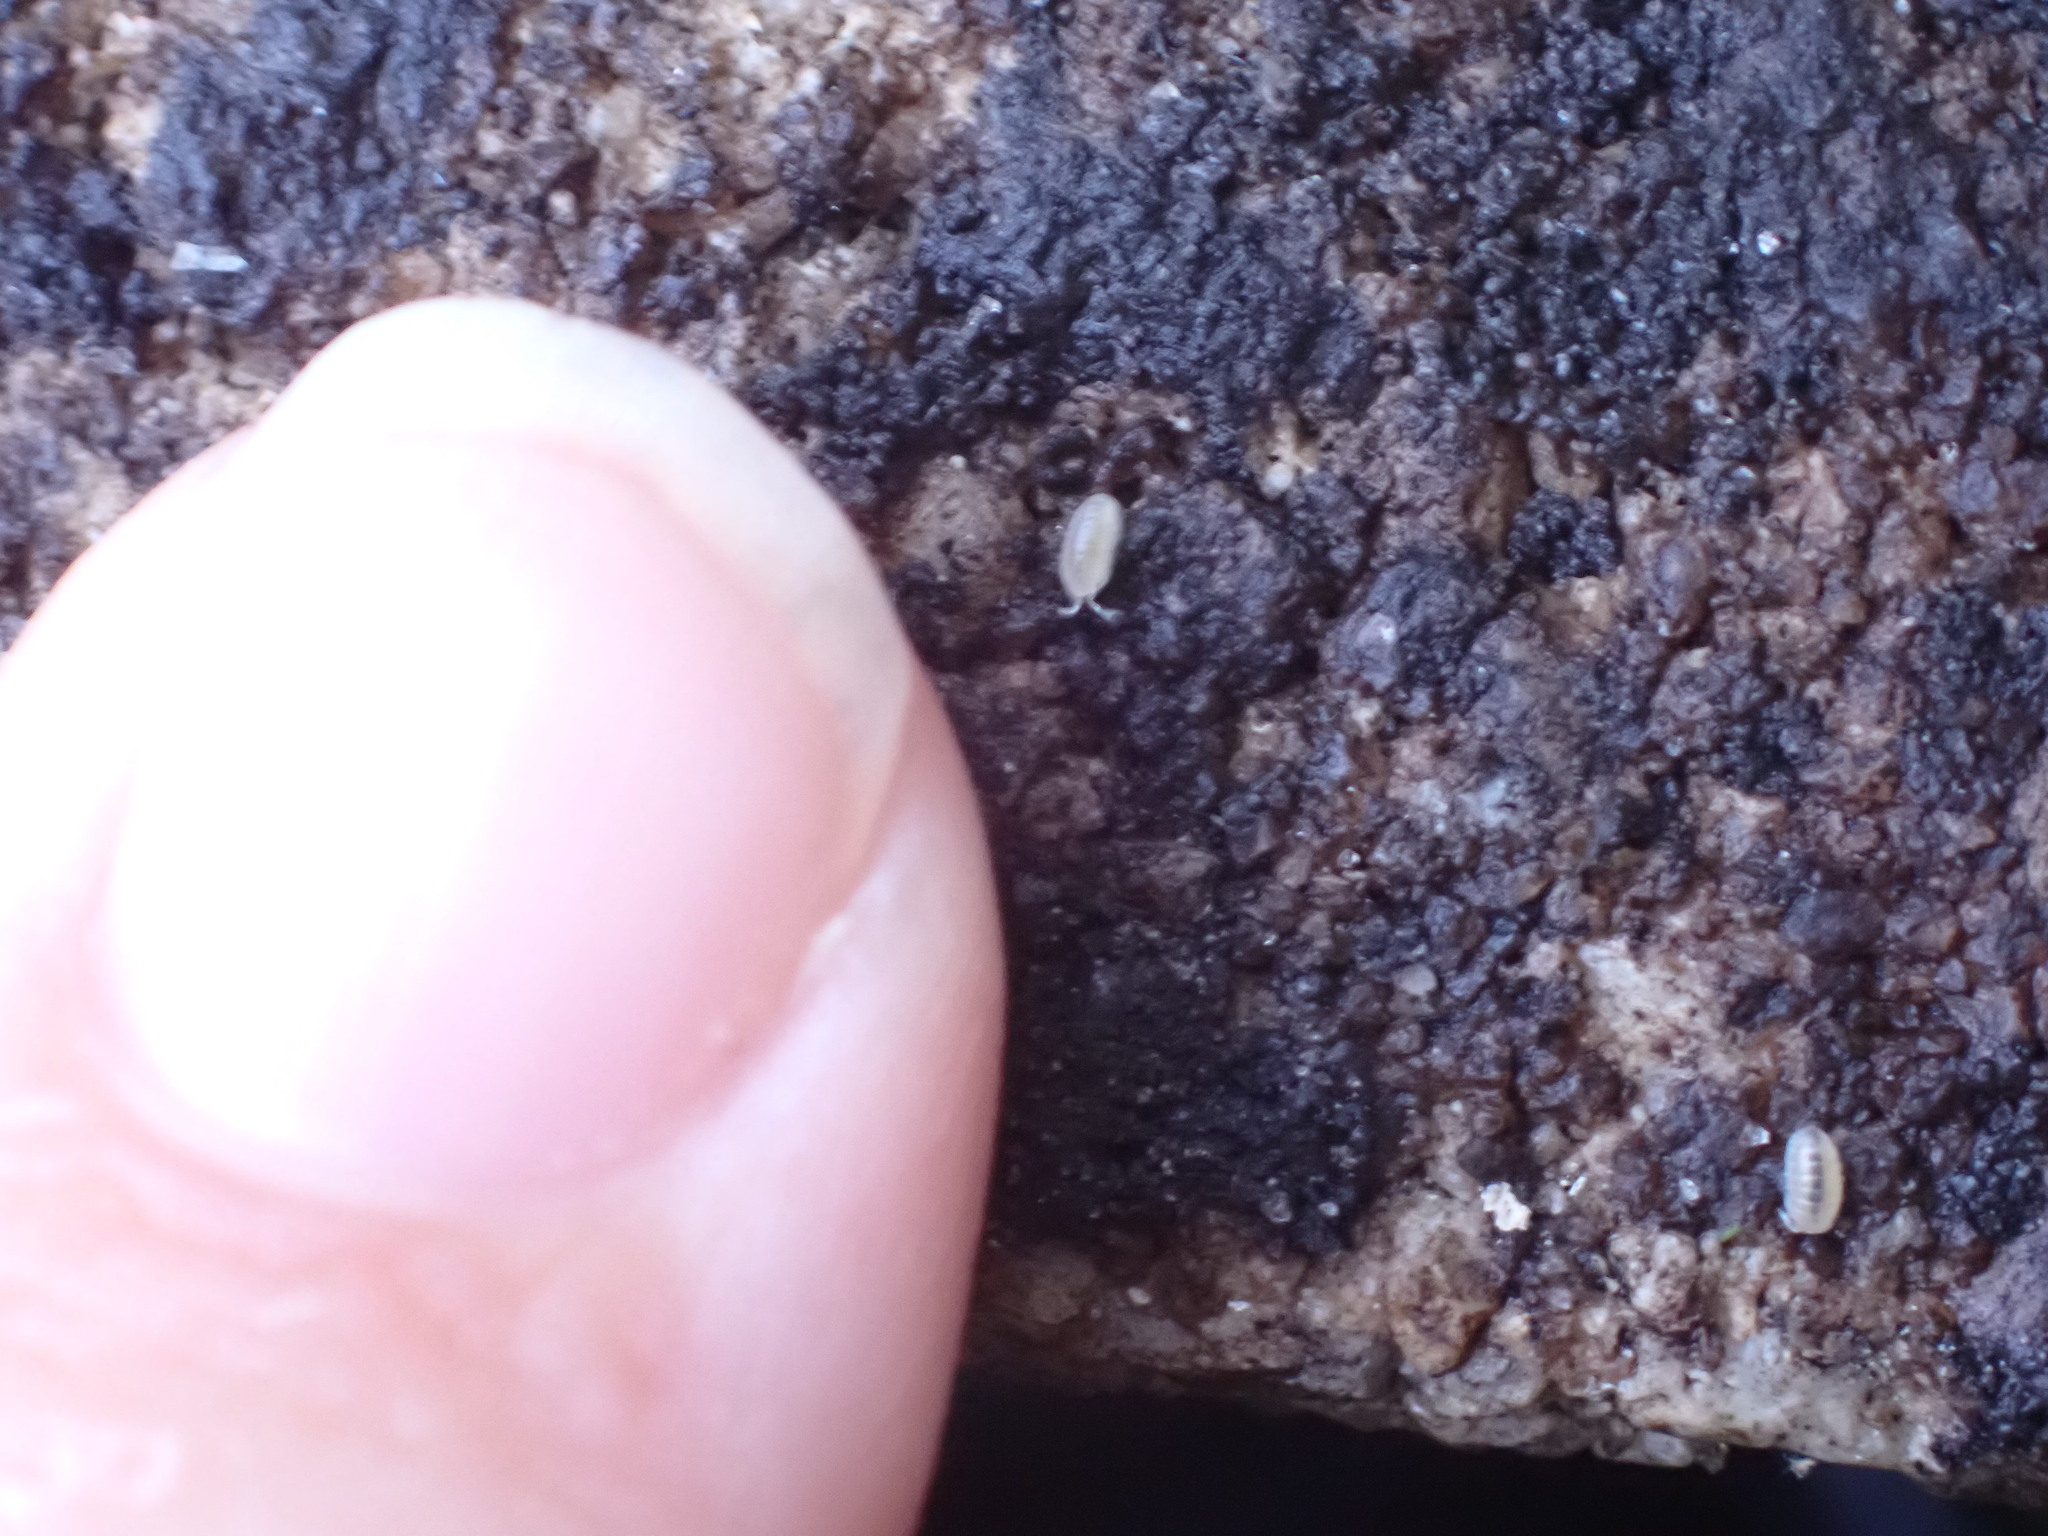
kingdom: Animalia
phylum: Arthropoda
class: Malacostraca
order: Isopoda
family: Armadillidiidae
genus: Armadillidium
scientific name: Armadillidium vulgare
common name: Common pill woodlouse
